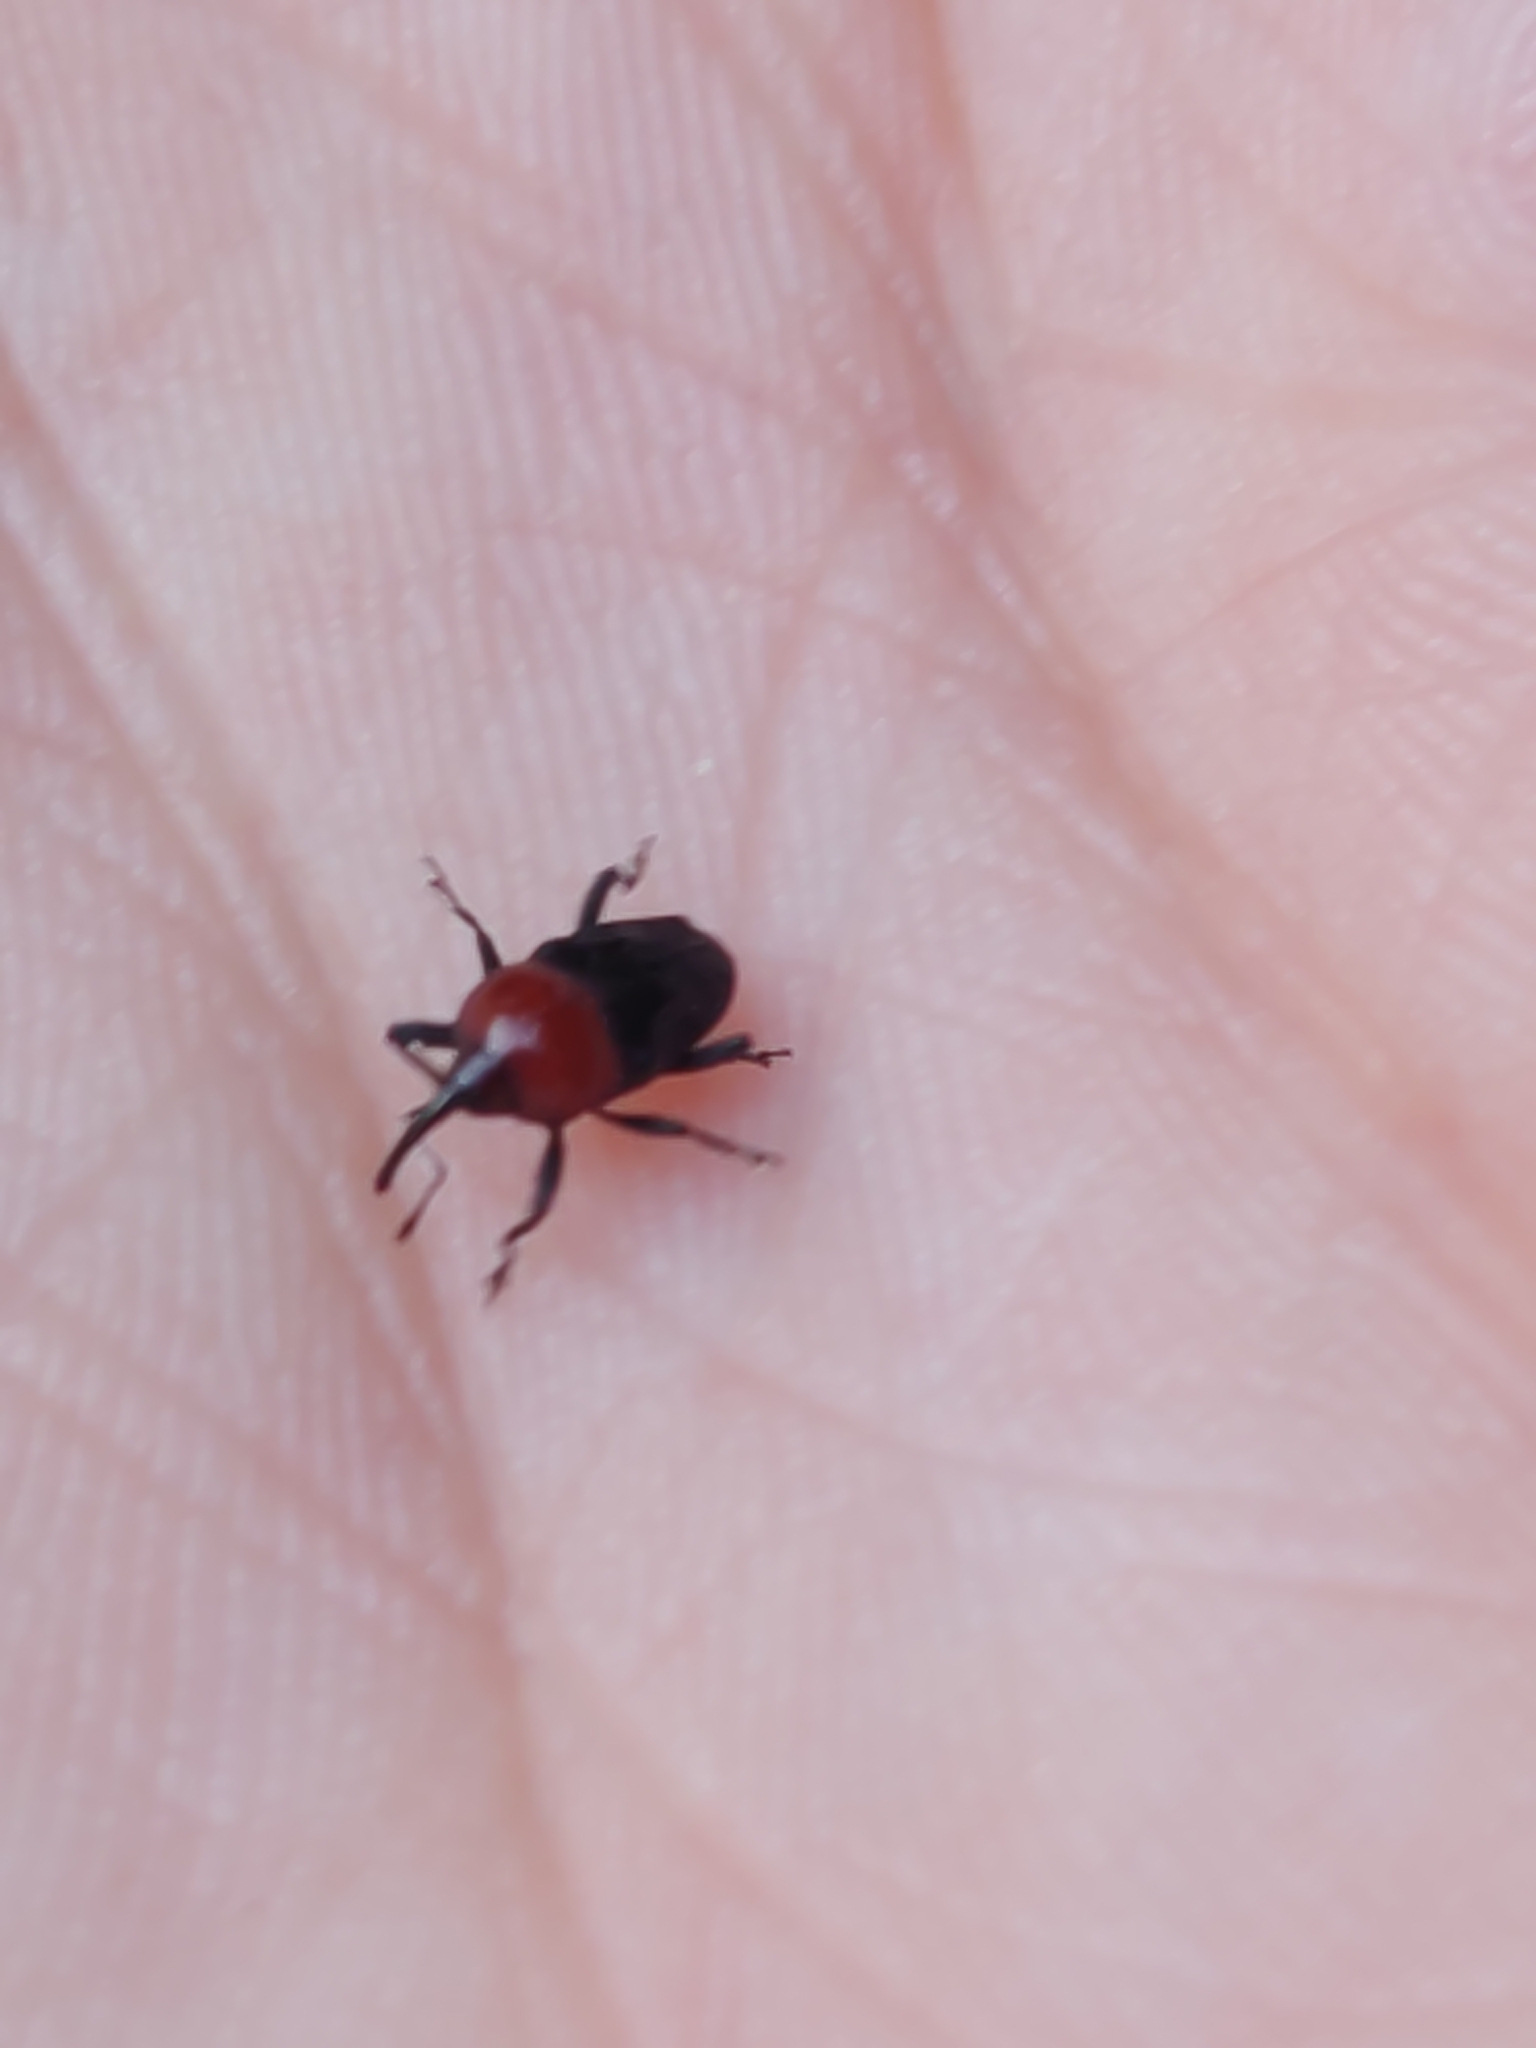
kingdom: Animalia
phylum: Arthropoda
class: Insecta
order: Coleoptera
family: Curculionidae
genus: Madarellus
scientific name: Madarellus undulatus
